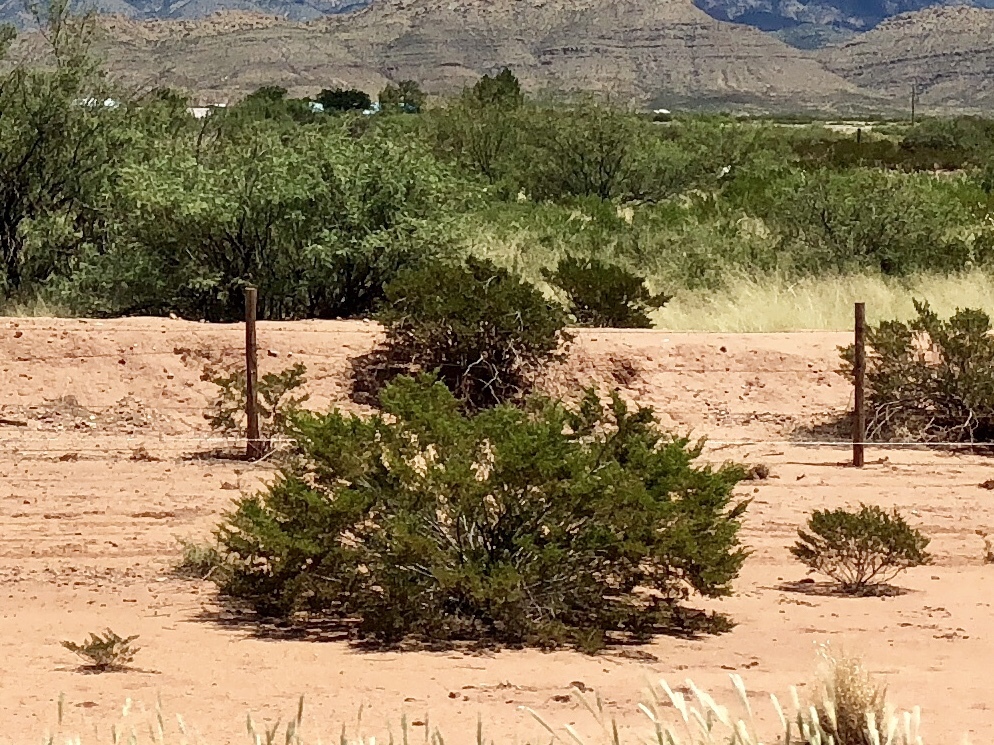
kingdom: Plantae
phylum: Tracheophyta
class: Magnoliopsida
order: Zygophyllales
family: Zygophyllaceae
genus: Larrea
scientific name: Larrea tridentata
